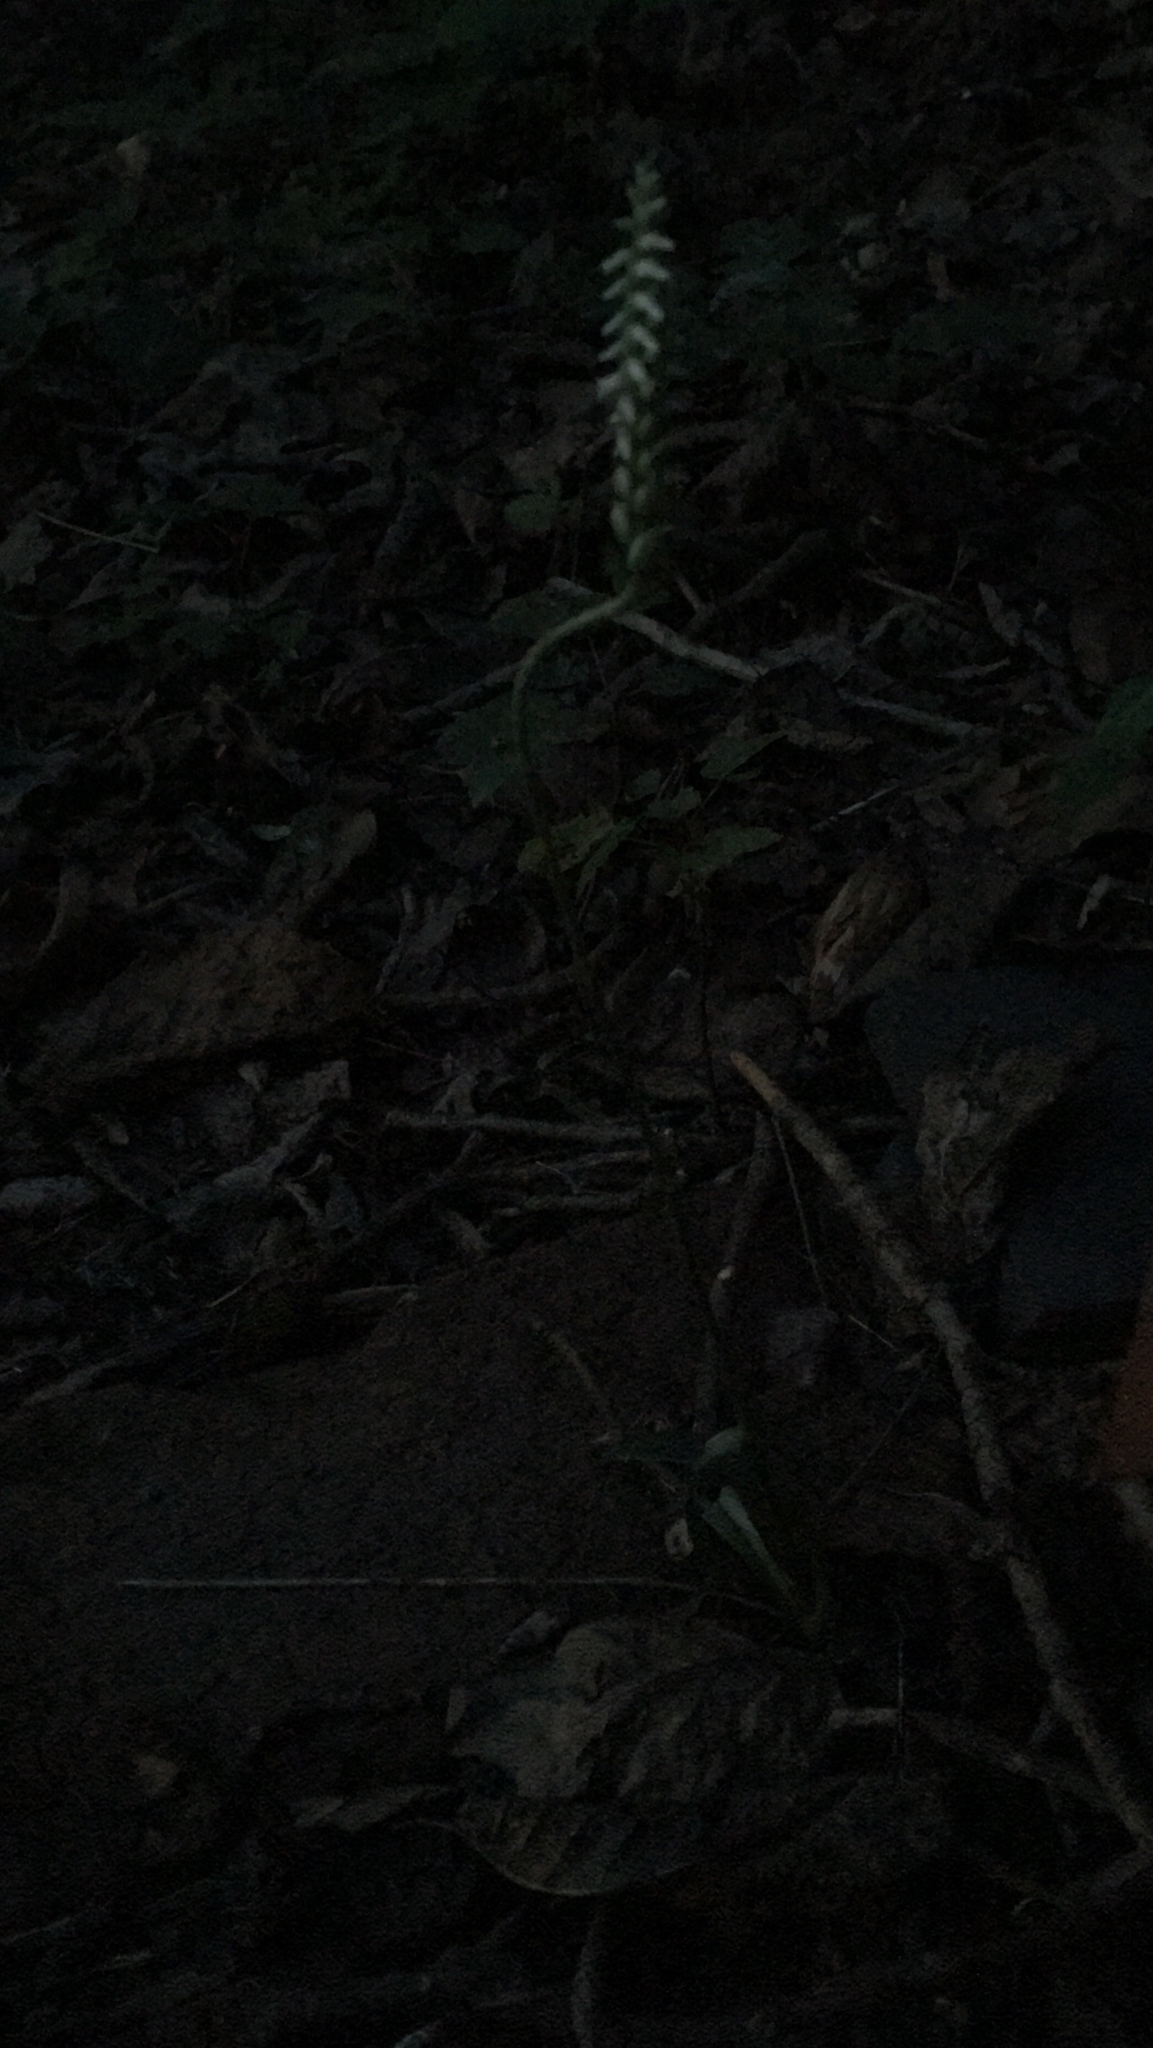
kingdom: Plantae
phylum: Tracheophyta
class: Liliopsida
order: Asparagales
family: Orchidaceae
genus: Spiranthes
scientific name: Spiranthes ovalis
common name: October ladies'-tresses
